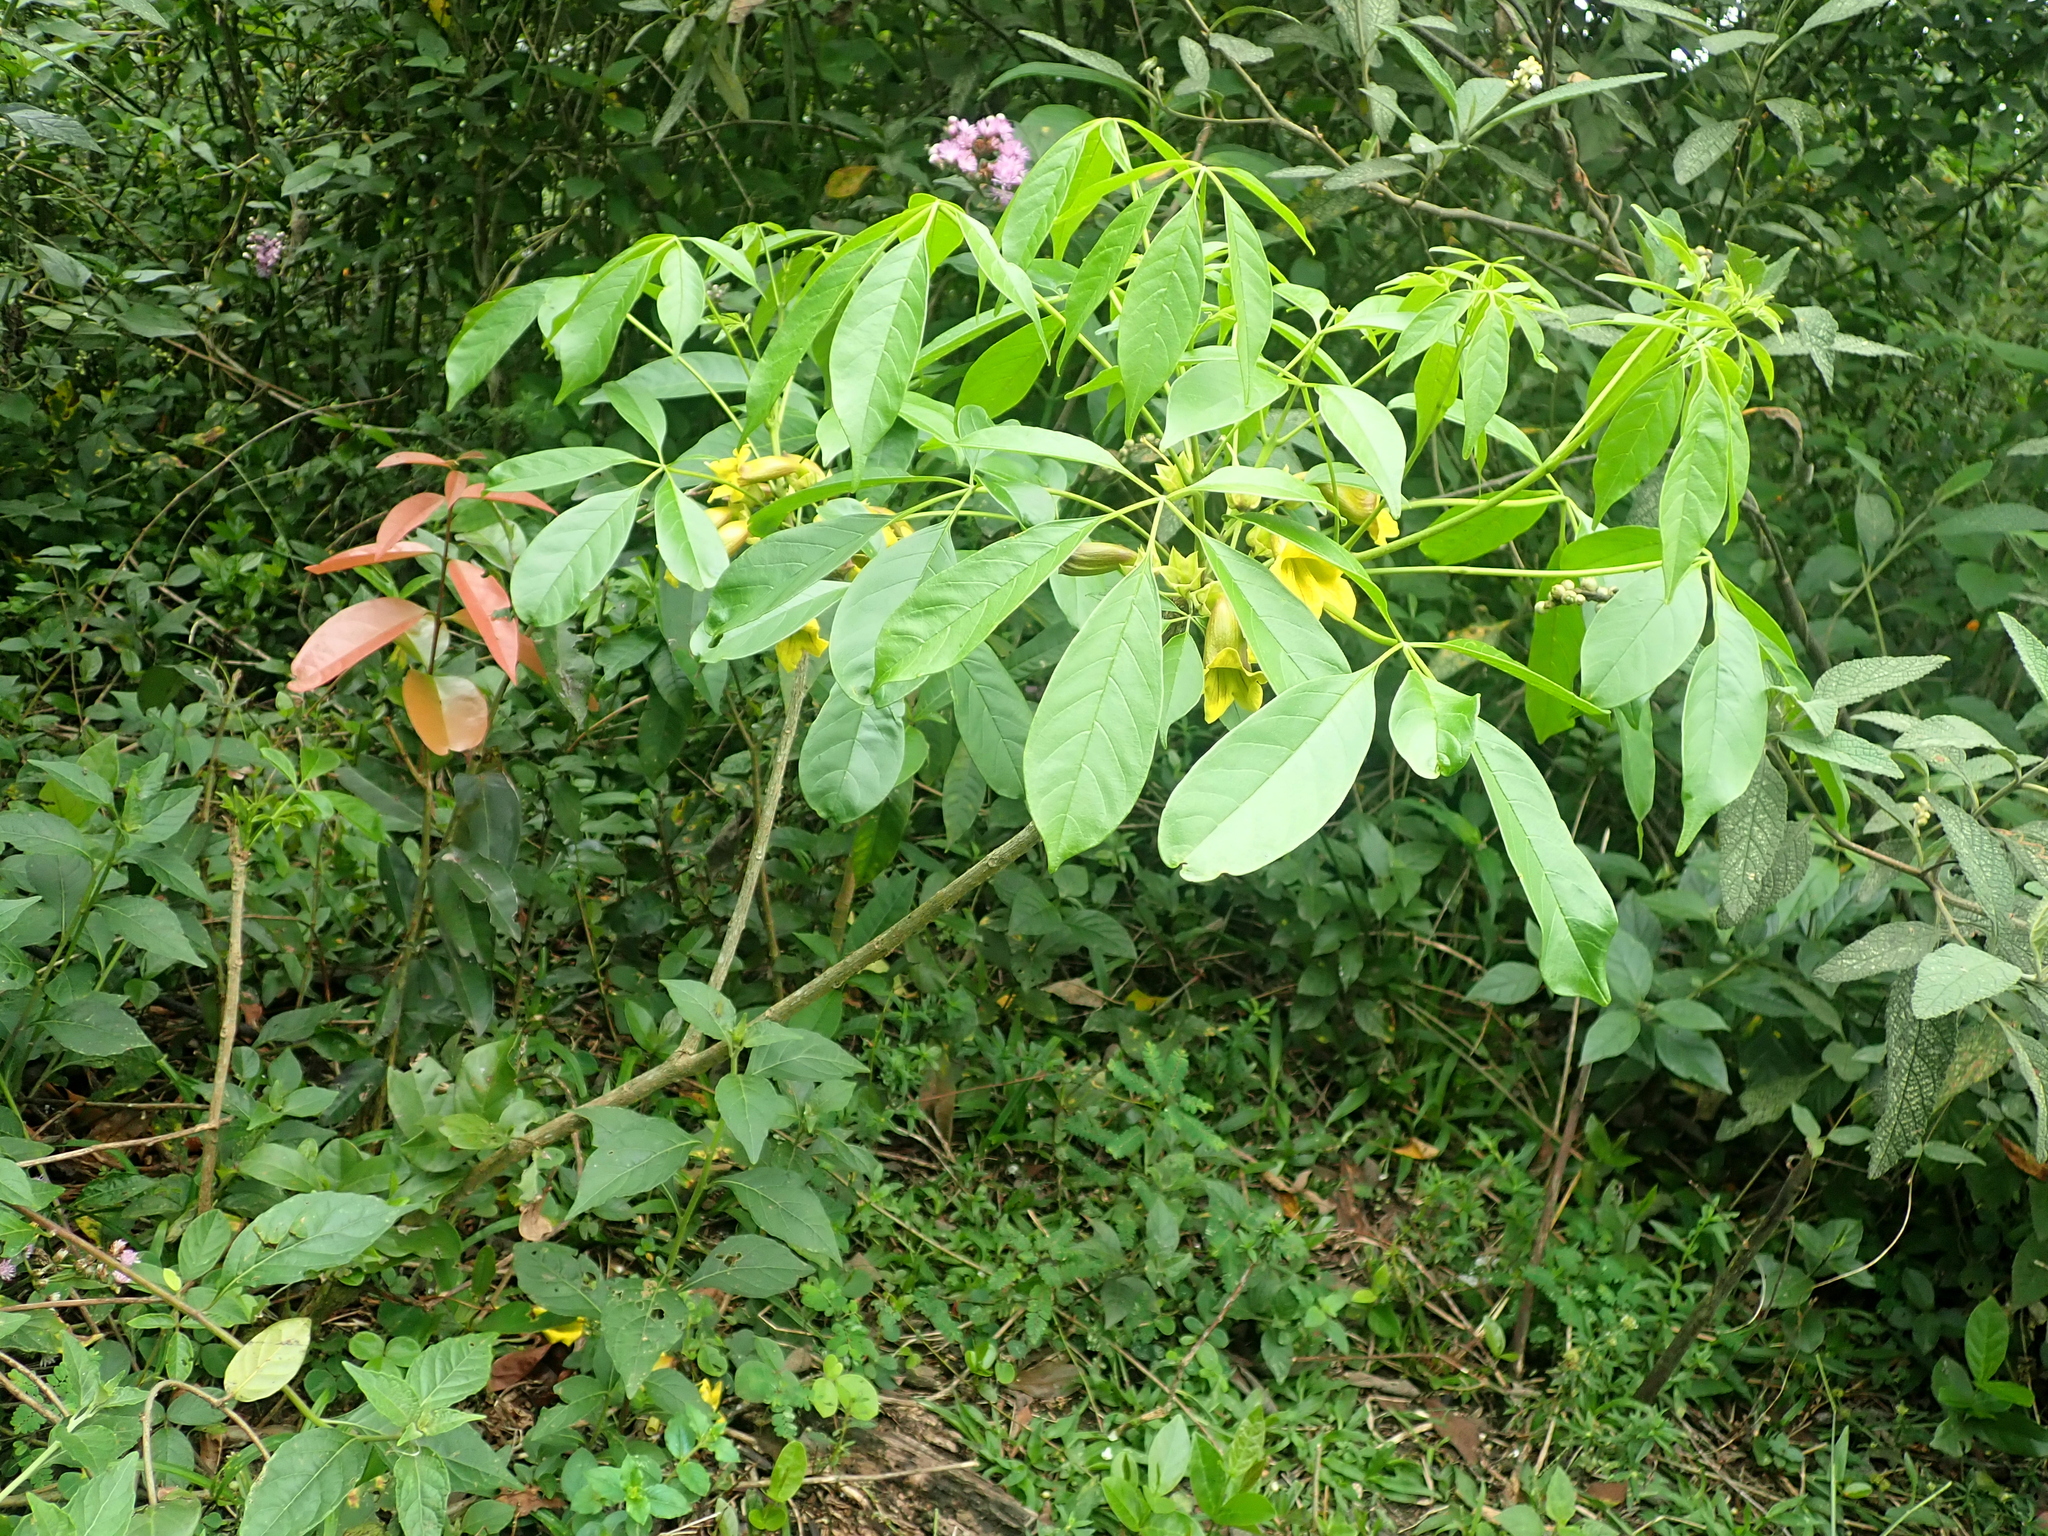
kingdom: Plantae
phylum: Tracheophyta
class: Magnoliopsida
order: Lamiales
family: Bignoniaceae
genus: Cybistax
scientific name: Cybistax antisyphilitica
